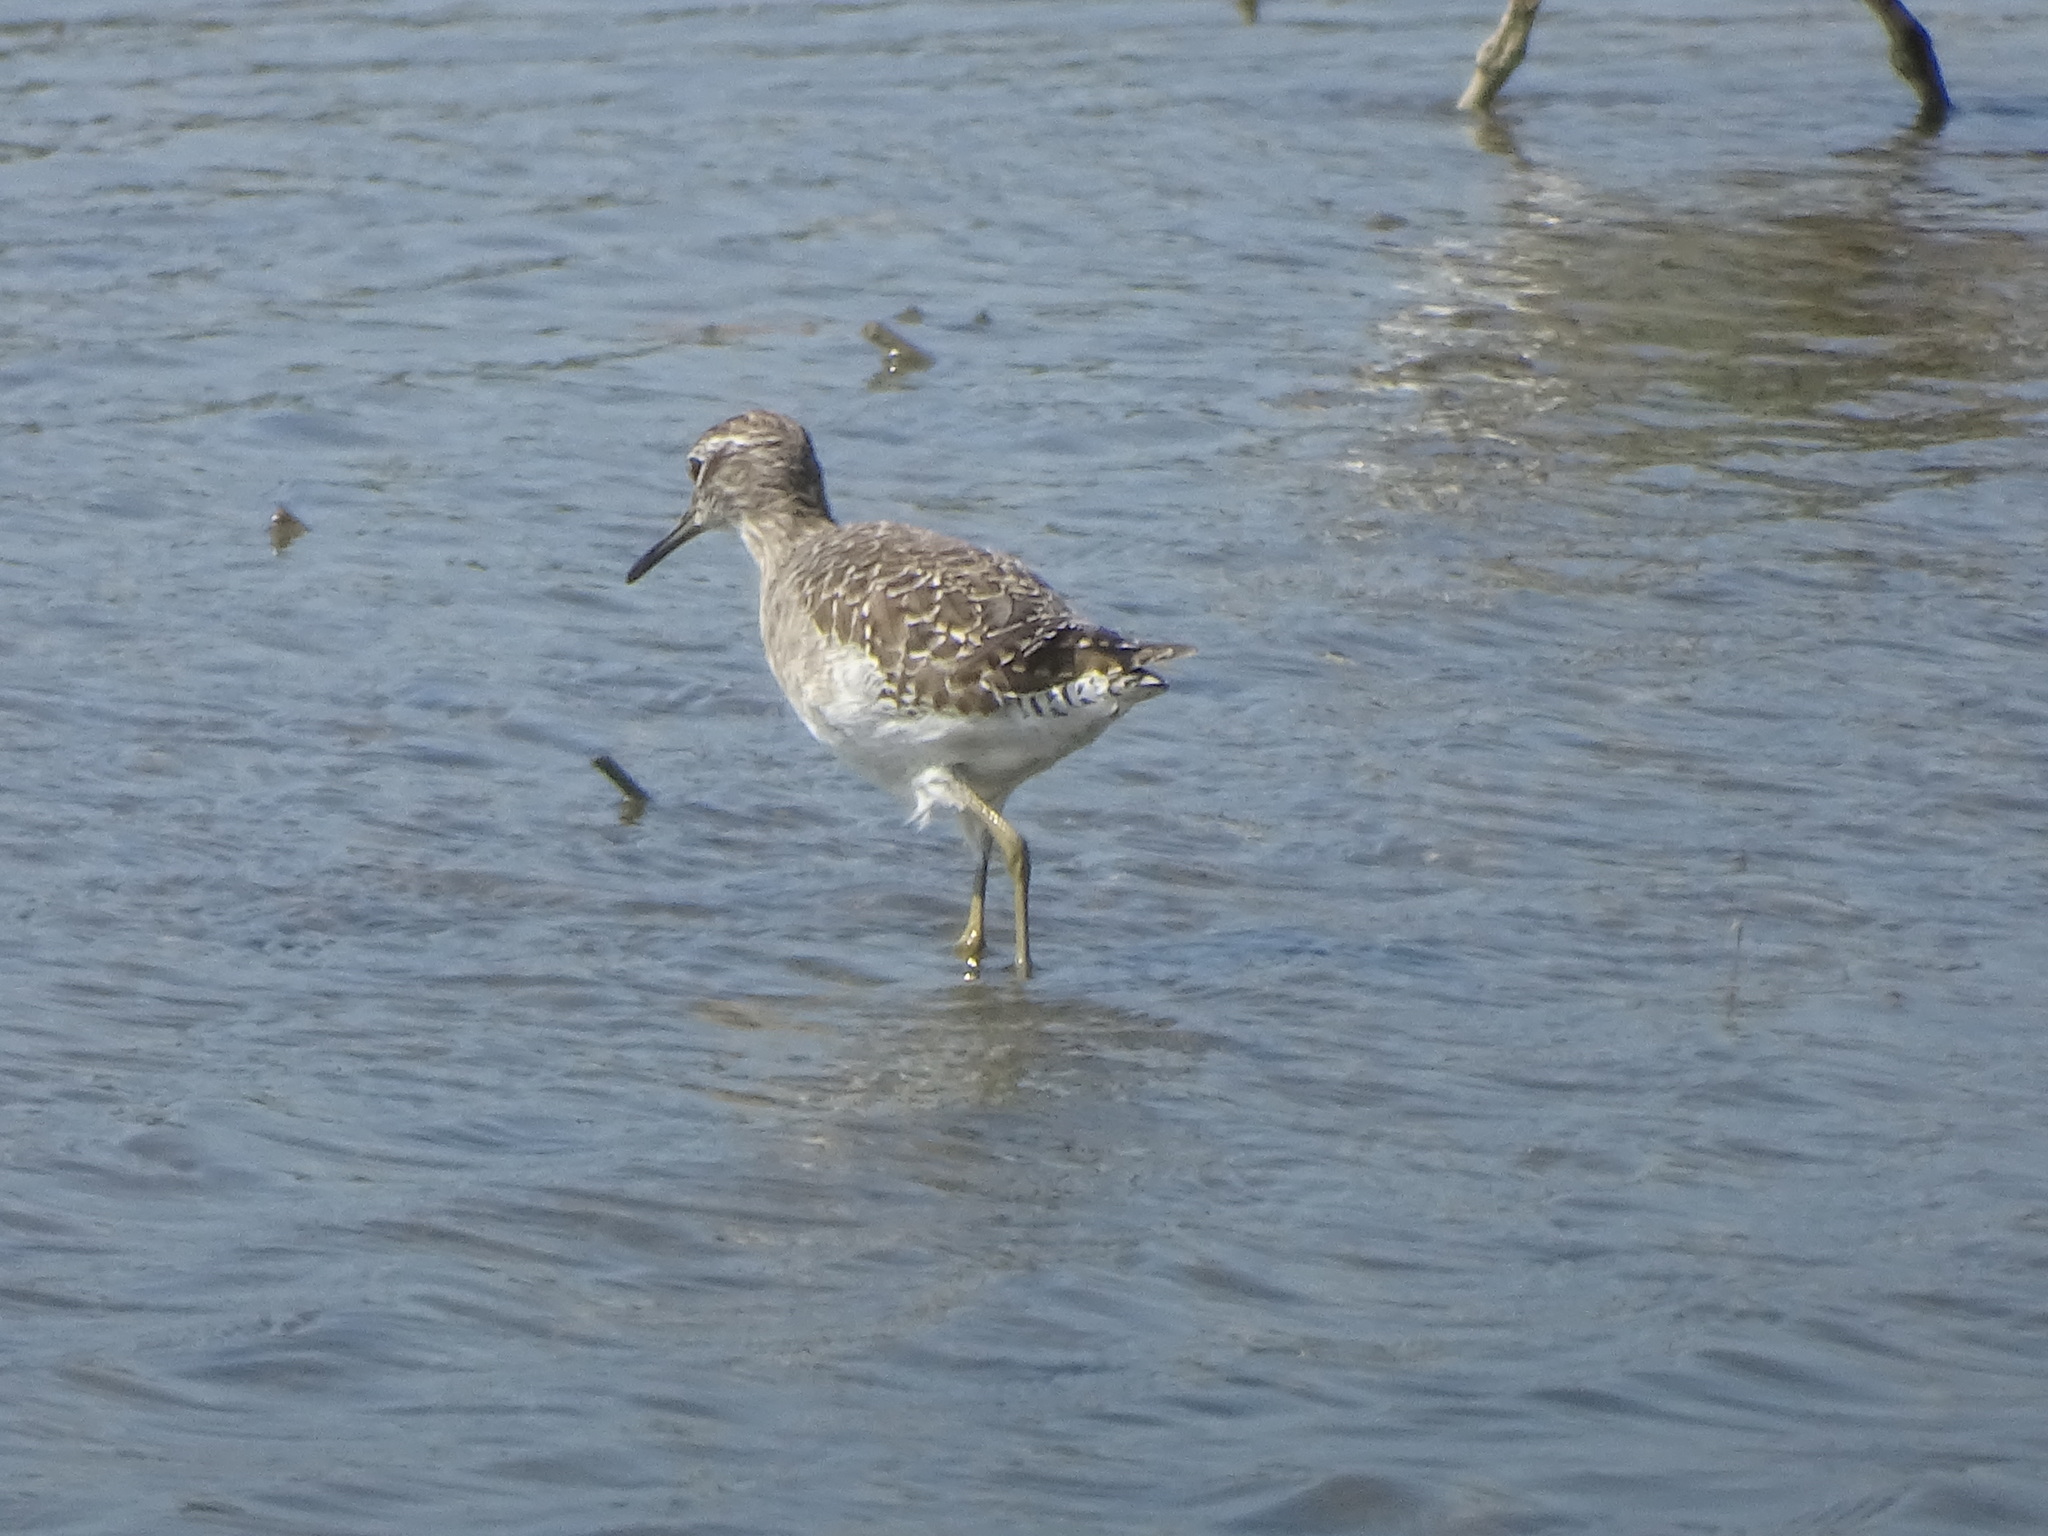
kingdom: Animalia
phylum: Chordata
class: Aves
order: Charadriiformes
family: Scolopacidae
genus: Tringa
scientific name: Tringa glareola
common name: Wood sandpiper
